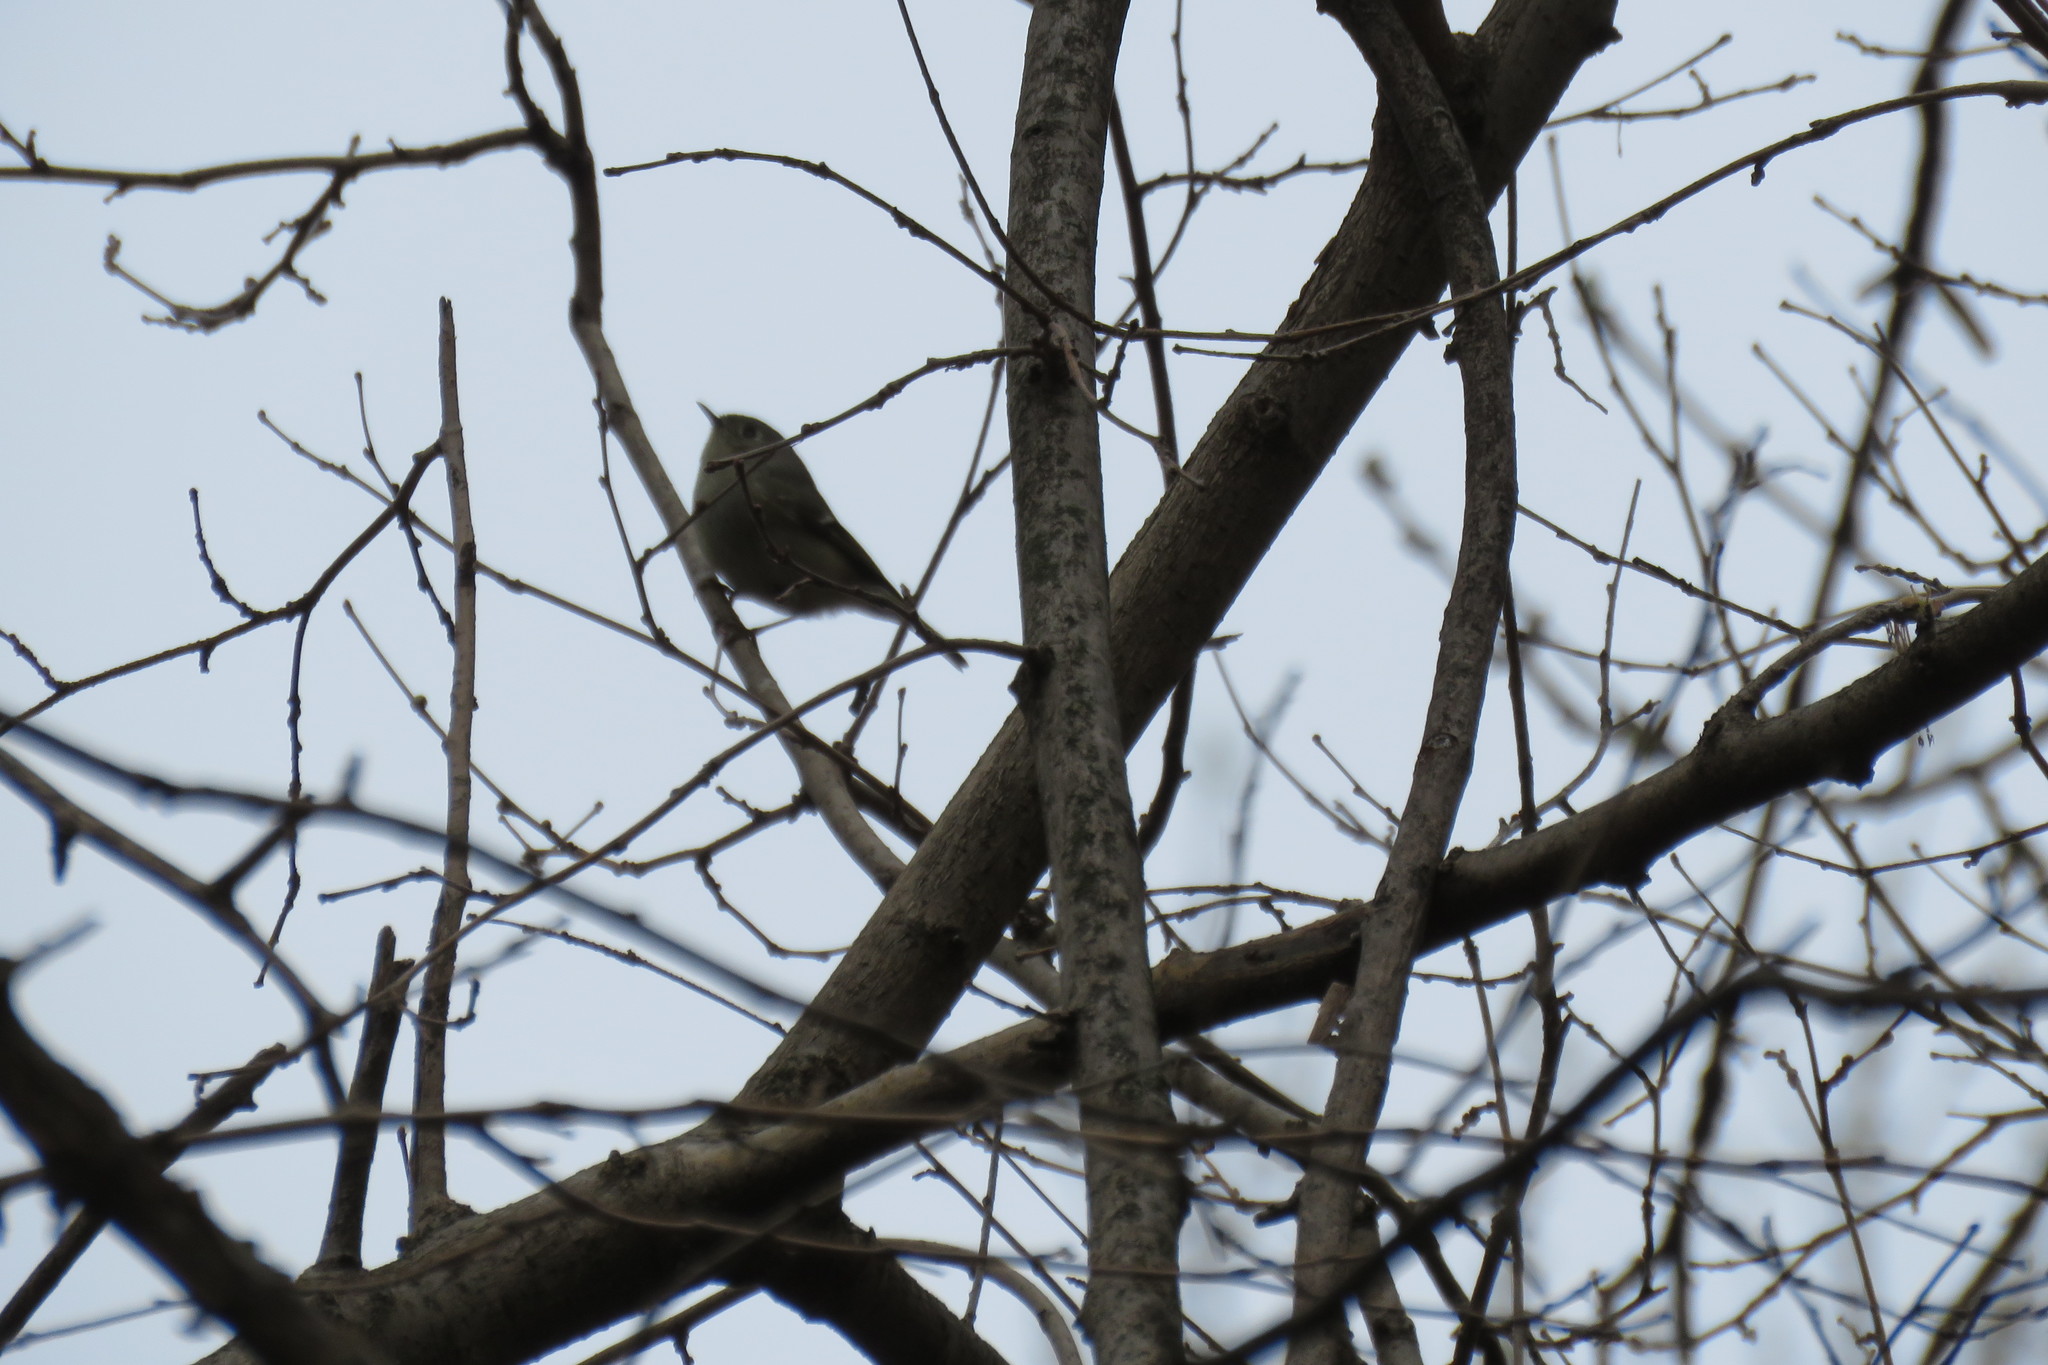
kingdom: Animalia
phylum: Chordata
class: Aves
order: Passeriformes
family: Regulidae
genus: Regulus
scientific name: Regulus calendula
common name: Ruby-crowned kinglet
